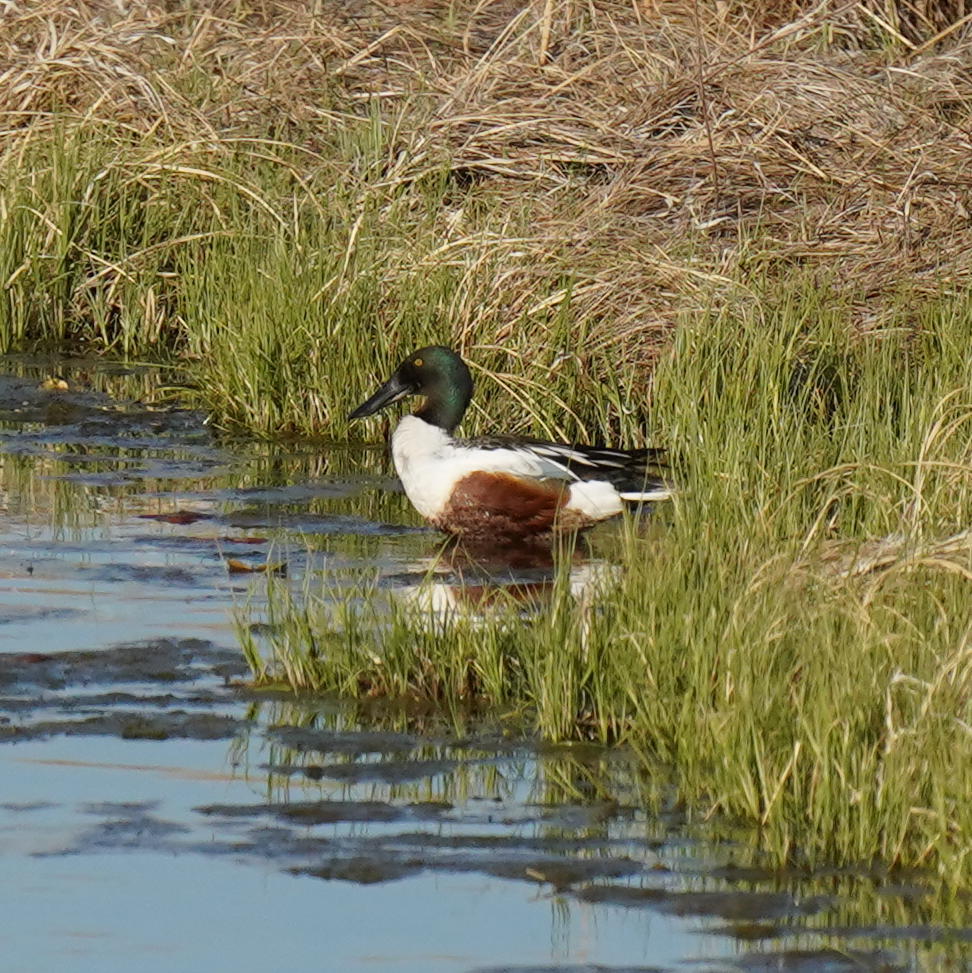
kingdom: Animalia
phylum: Chordata
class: Aves
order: Anseriformes
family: Anatidae
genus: Spatula
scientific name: Spatula clypeata
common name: Northern shoveler
